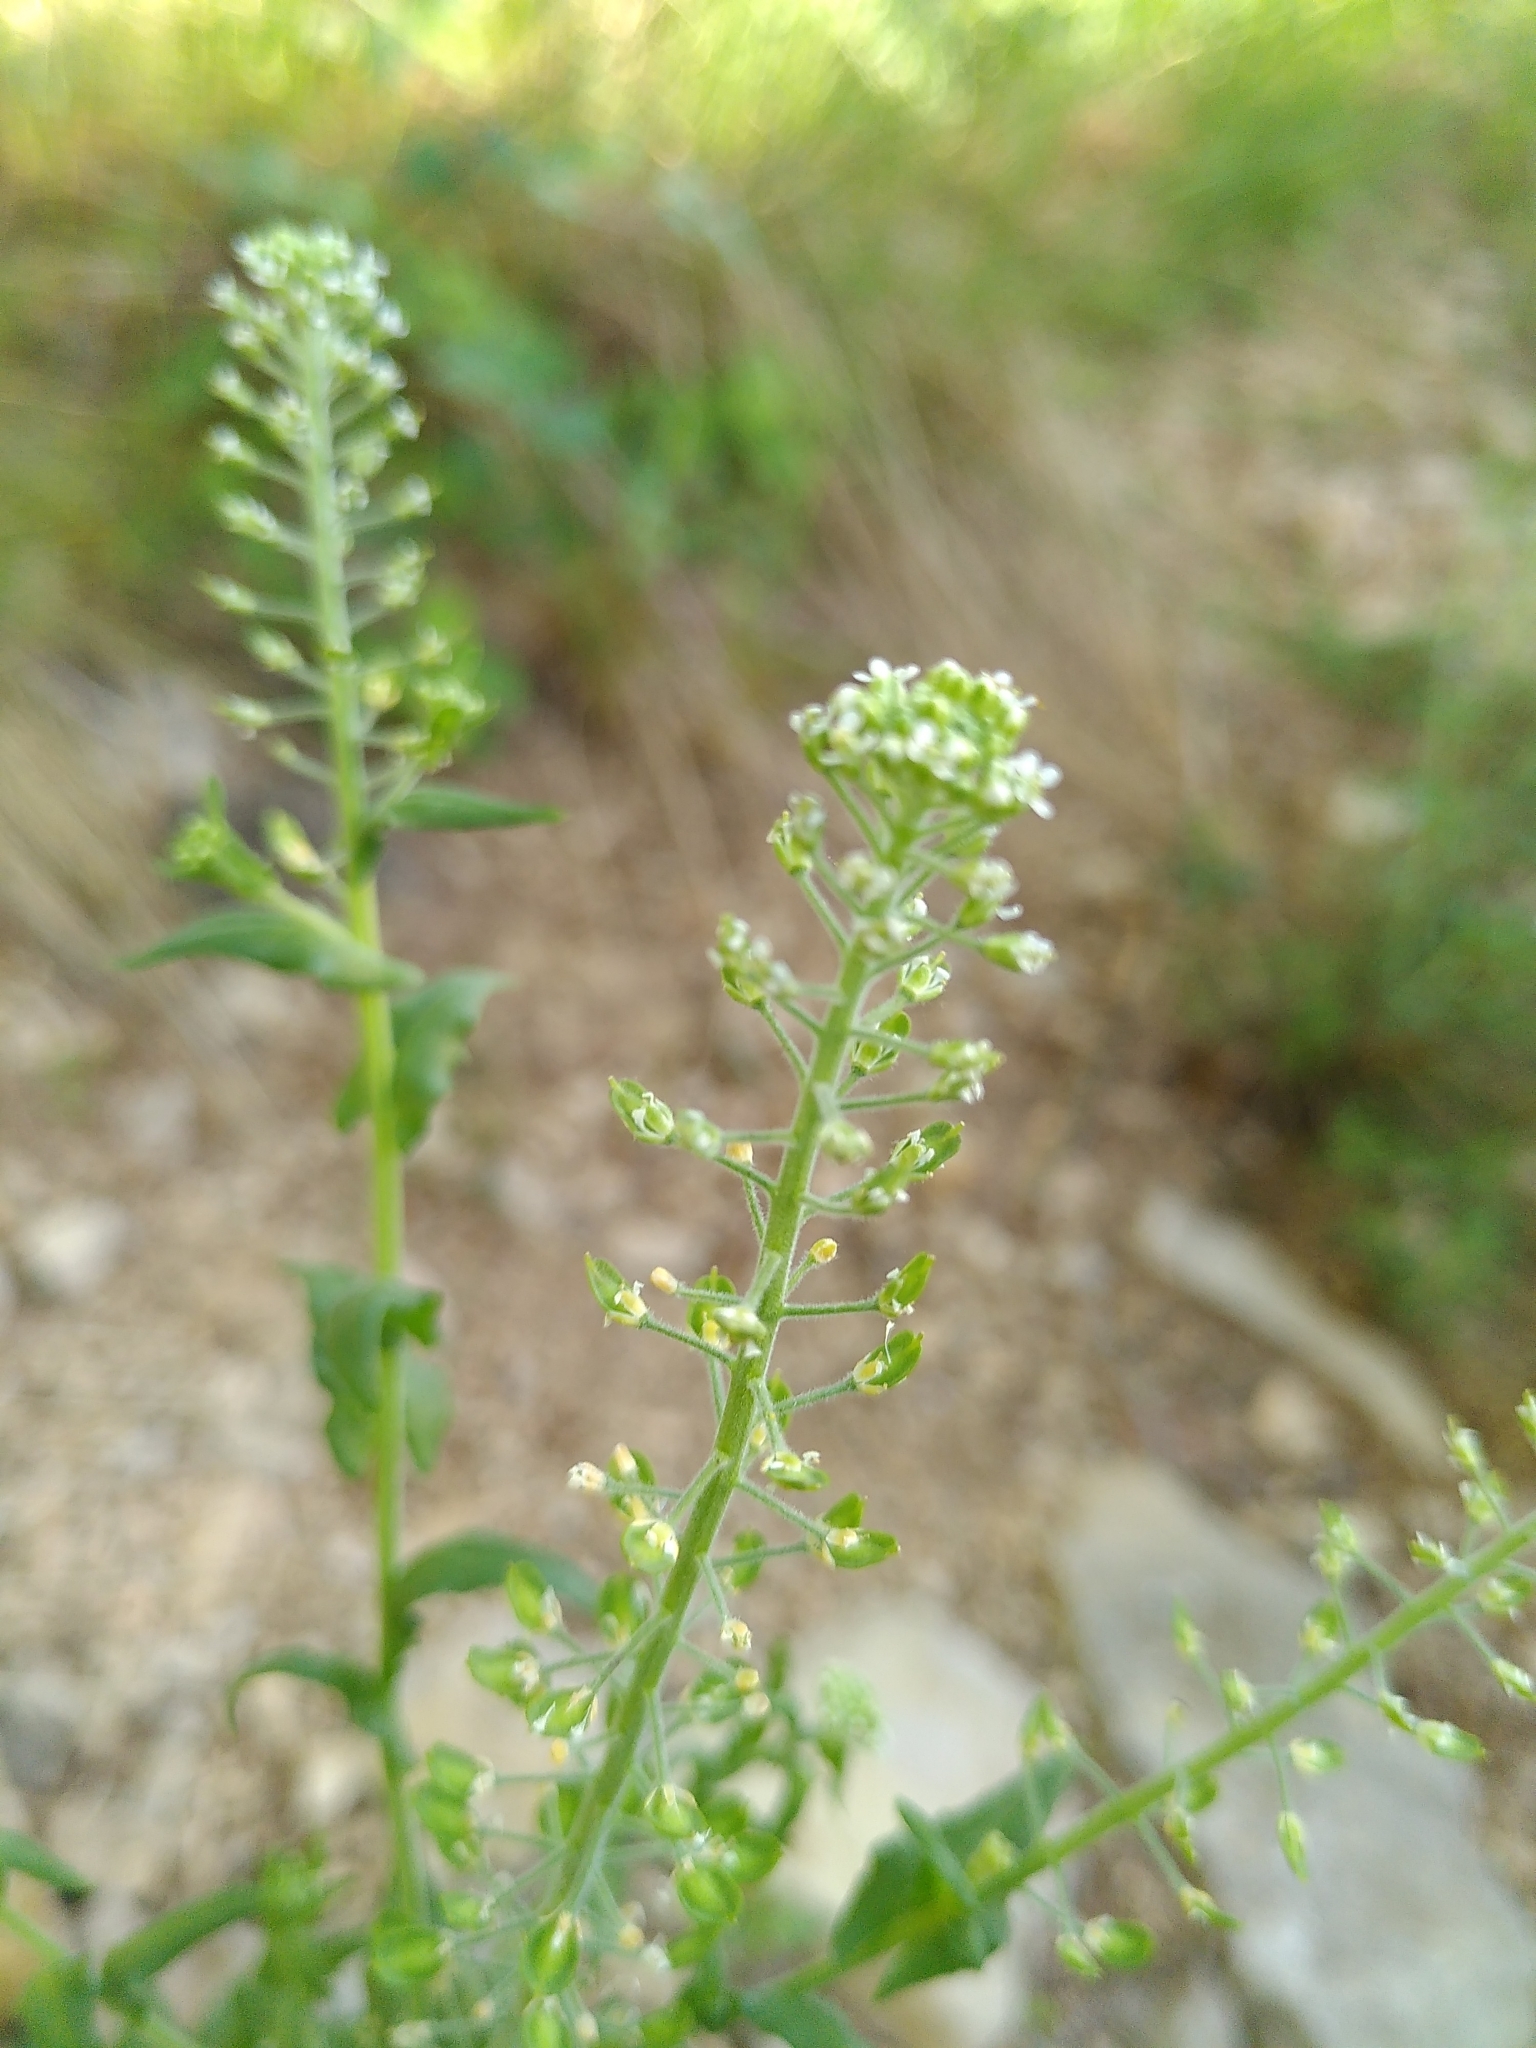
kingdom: Plantae
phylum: Tracheophyta
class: Magnoliopsida
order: Brassicales
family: Brassicaceae
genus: Lepidium
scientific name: Lepidium campestre
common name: Field pepperwort
